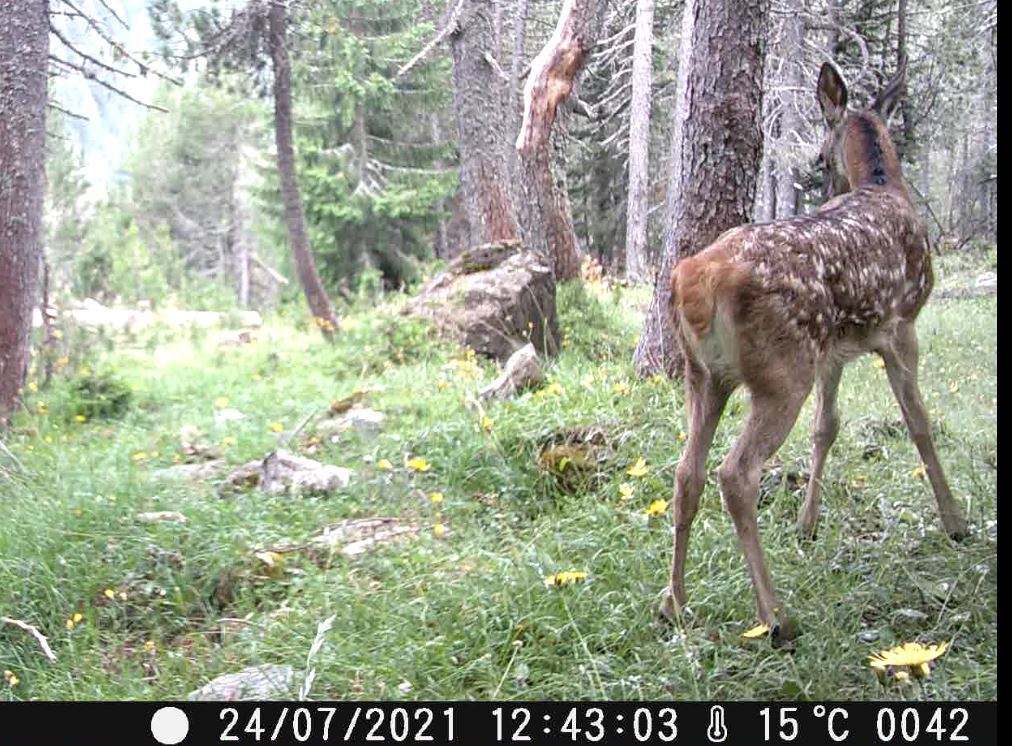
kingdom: Animalia
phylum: Chordata
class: Mammalia
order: Artiodactyla
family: Cervidae
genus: Cervus
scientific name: Cervus elaphus
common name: Red deer
